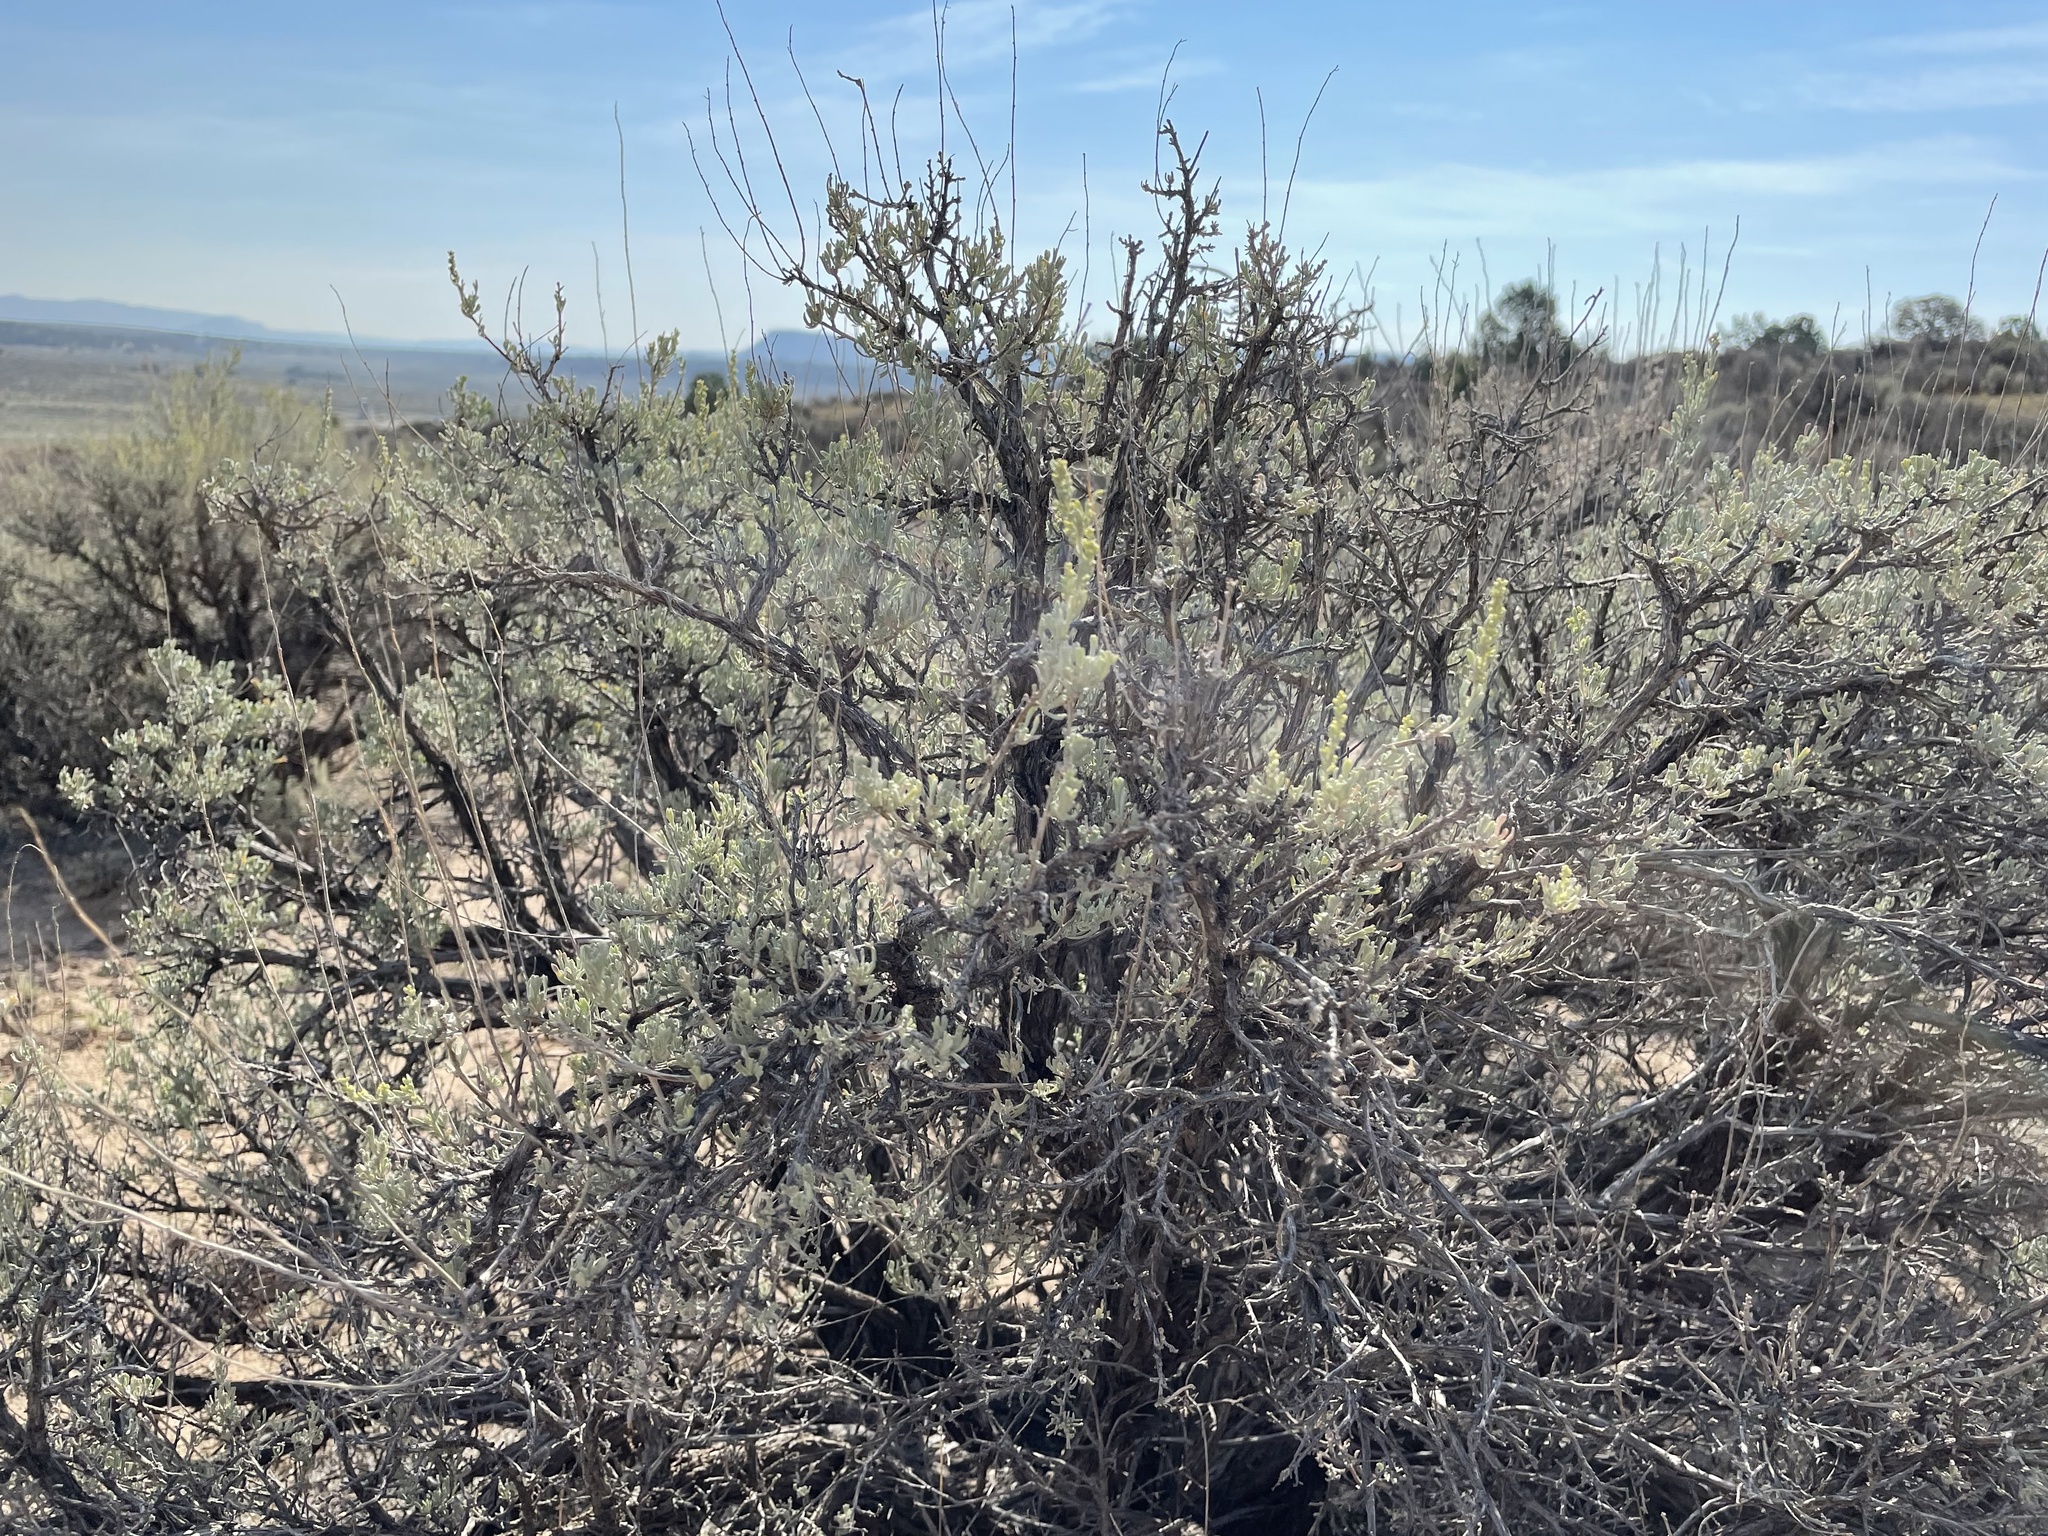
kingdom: Plantae
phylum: Tracheophyta
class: Magnoliopsida
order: Asterales
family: Asteraceae
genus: Artemisia
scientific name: Artemisia tridentata
